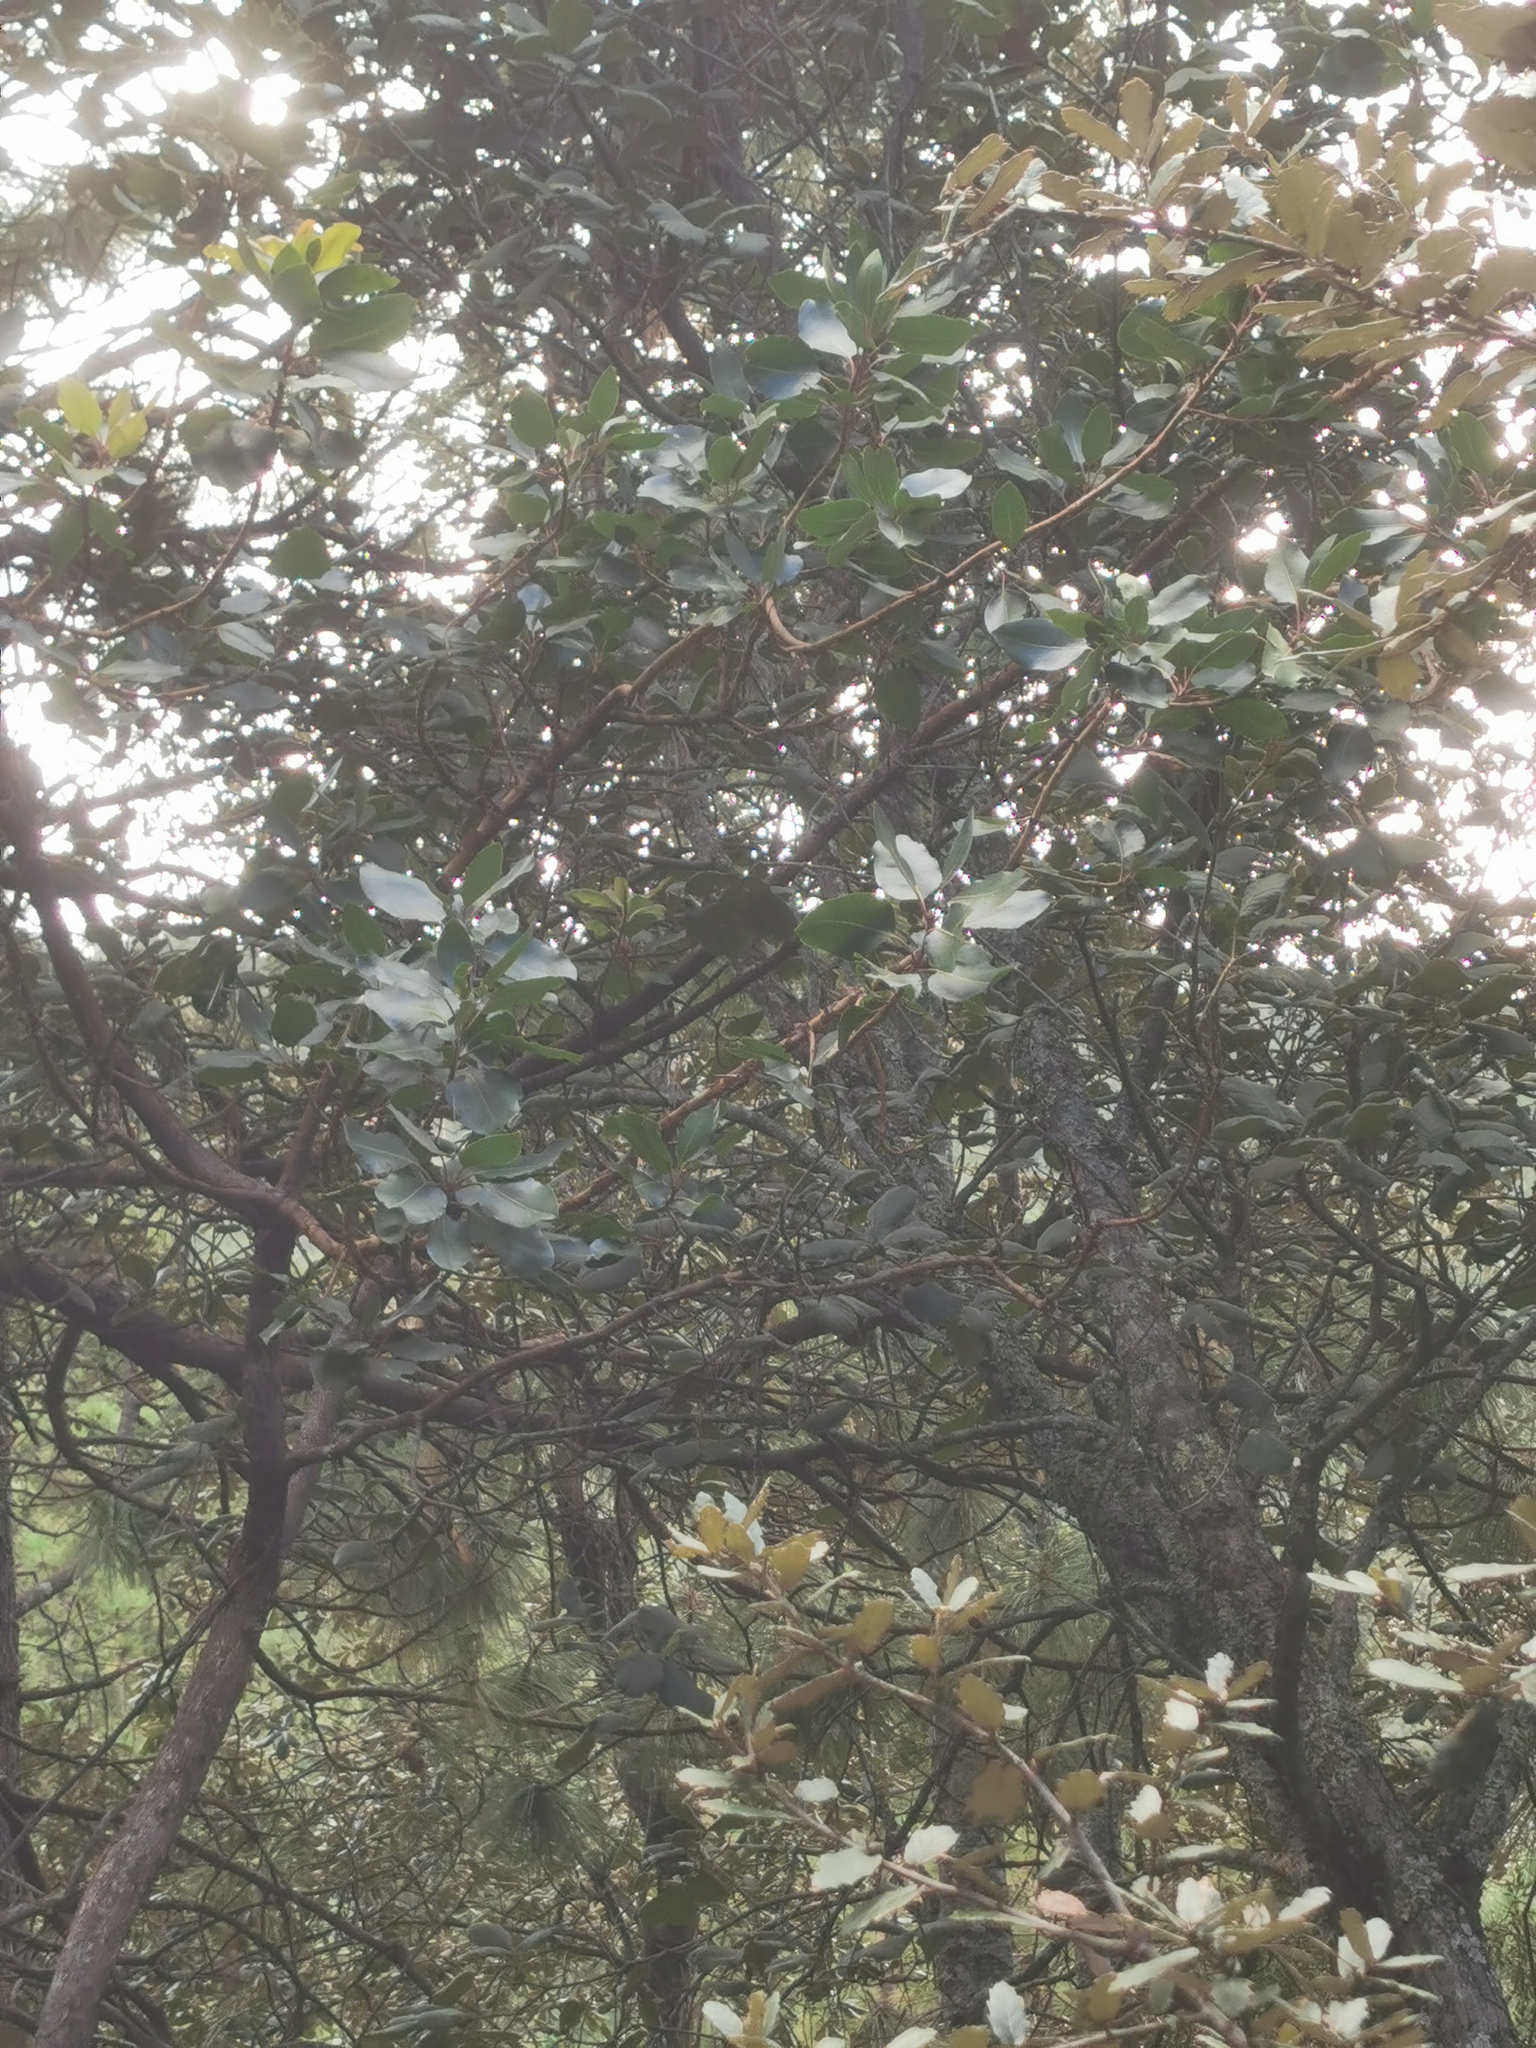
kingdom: Plantae
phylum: Tracheophyta
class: Magnoliopsida
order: Ericales
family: Ericaceae
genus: Arbutus
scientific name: Arbutus madrensis
